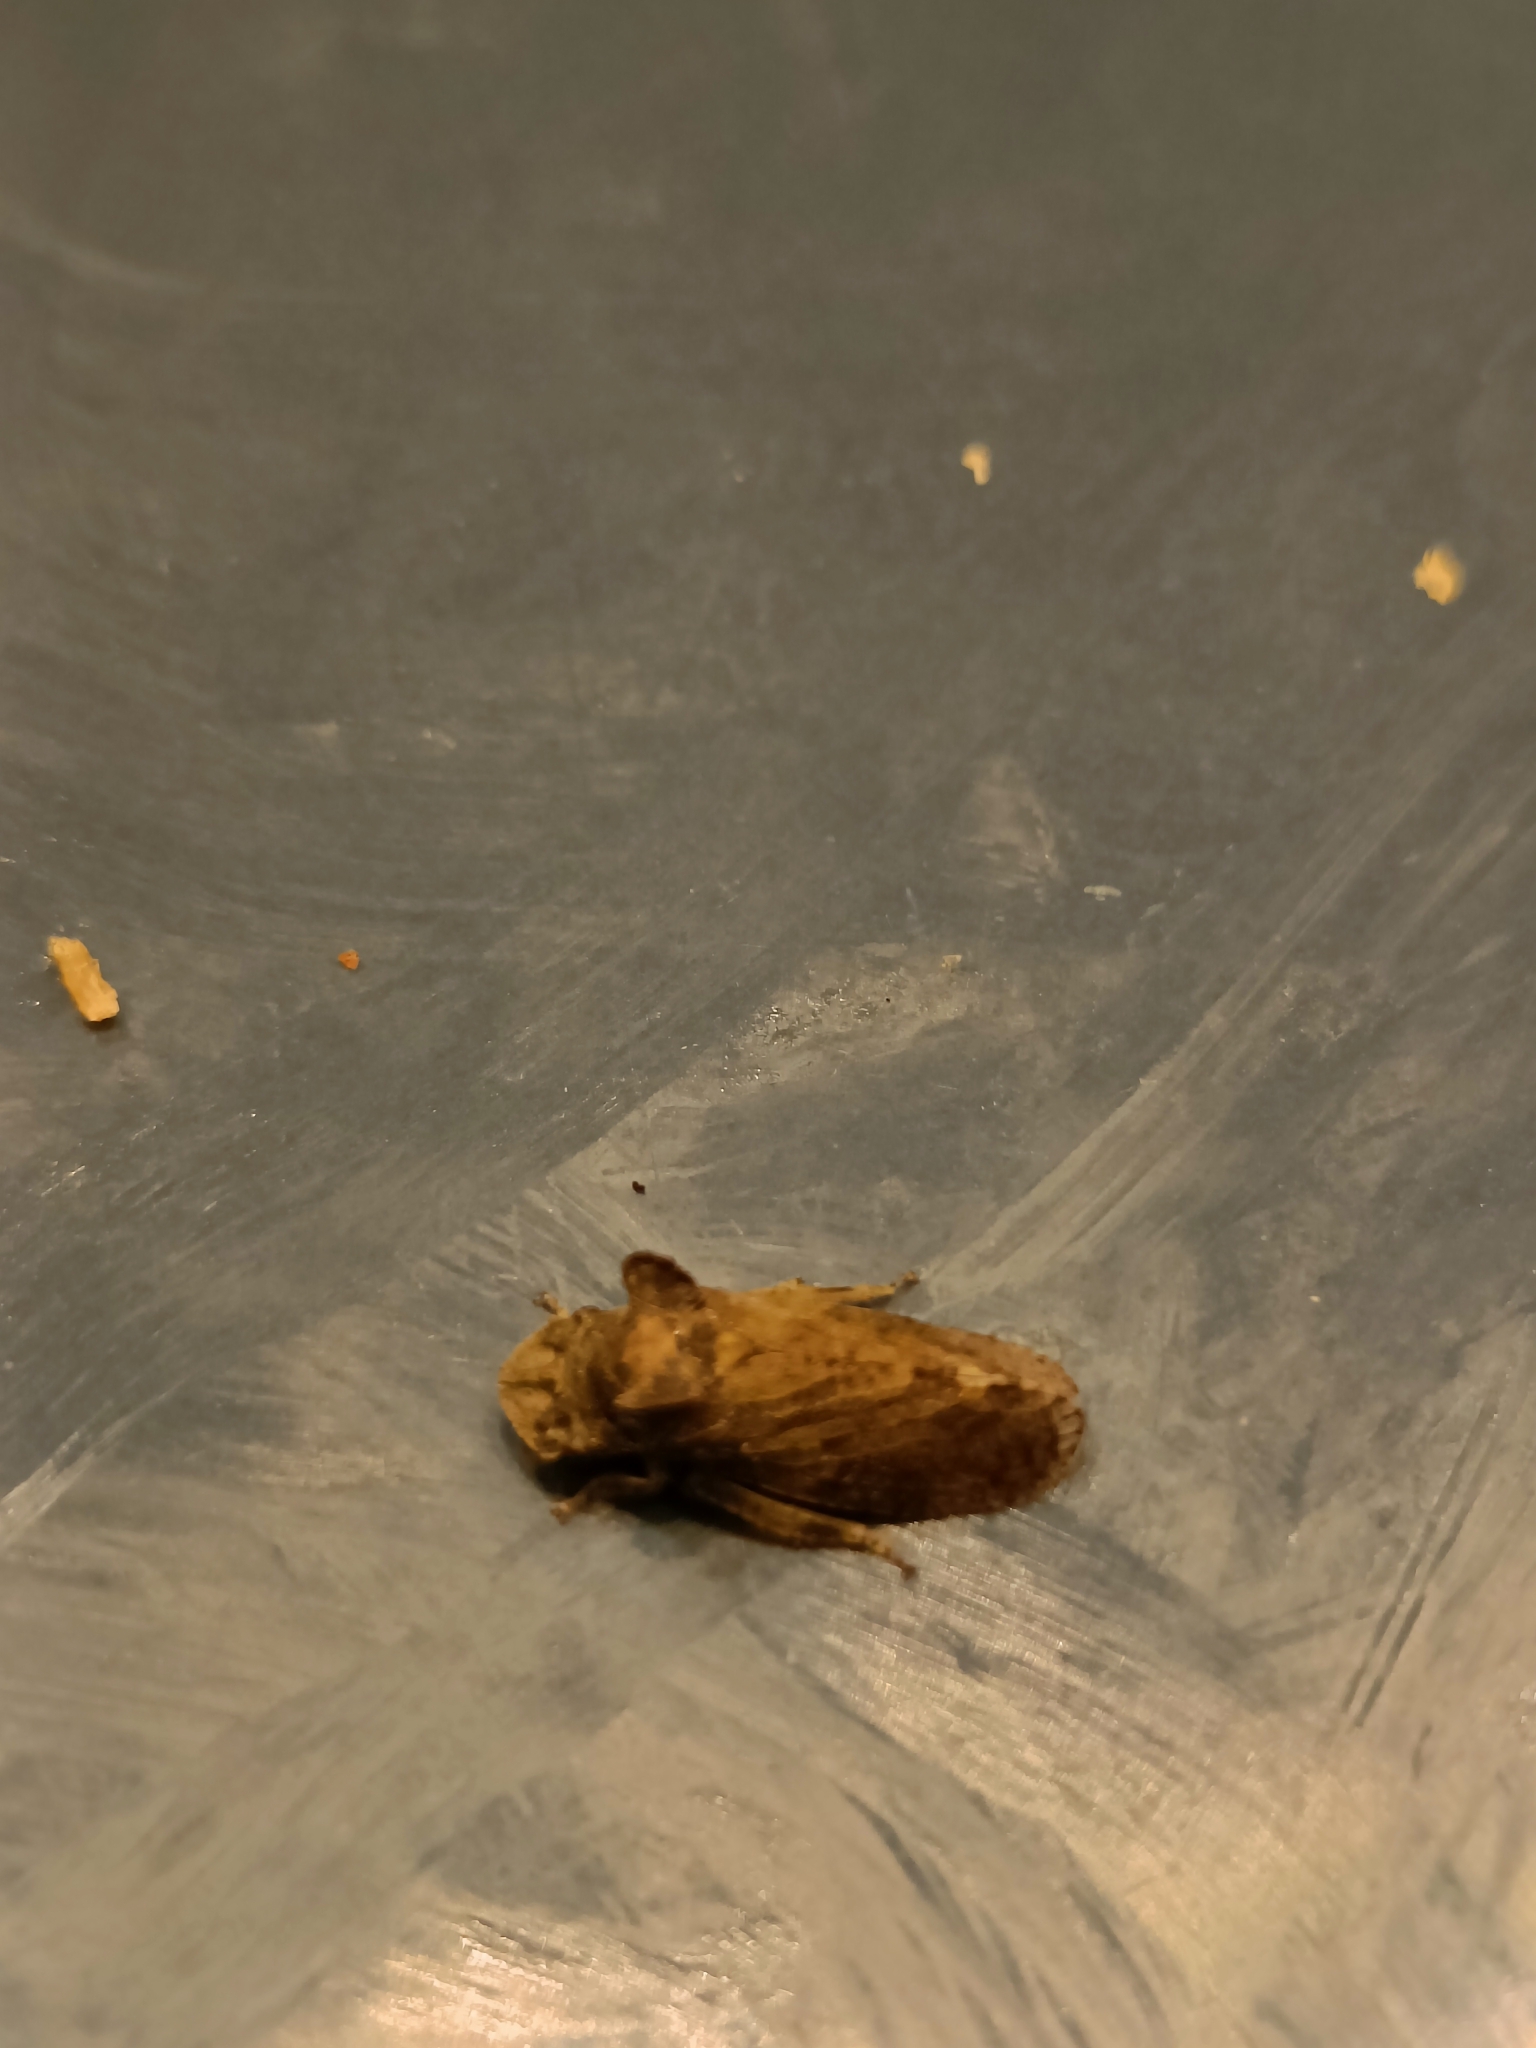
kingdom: Animalia
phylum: Arthropoda
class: Insecta
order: Hemiptera
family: Cicadellidae
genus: Ledra
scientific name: Ledra aurita
